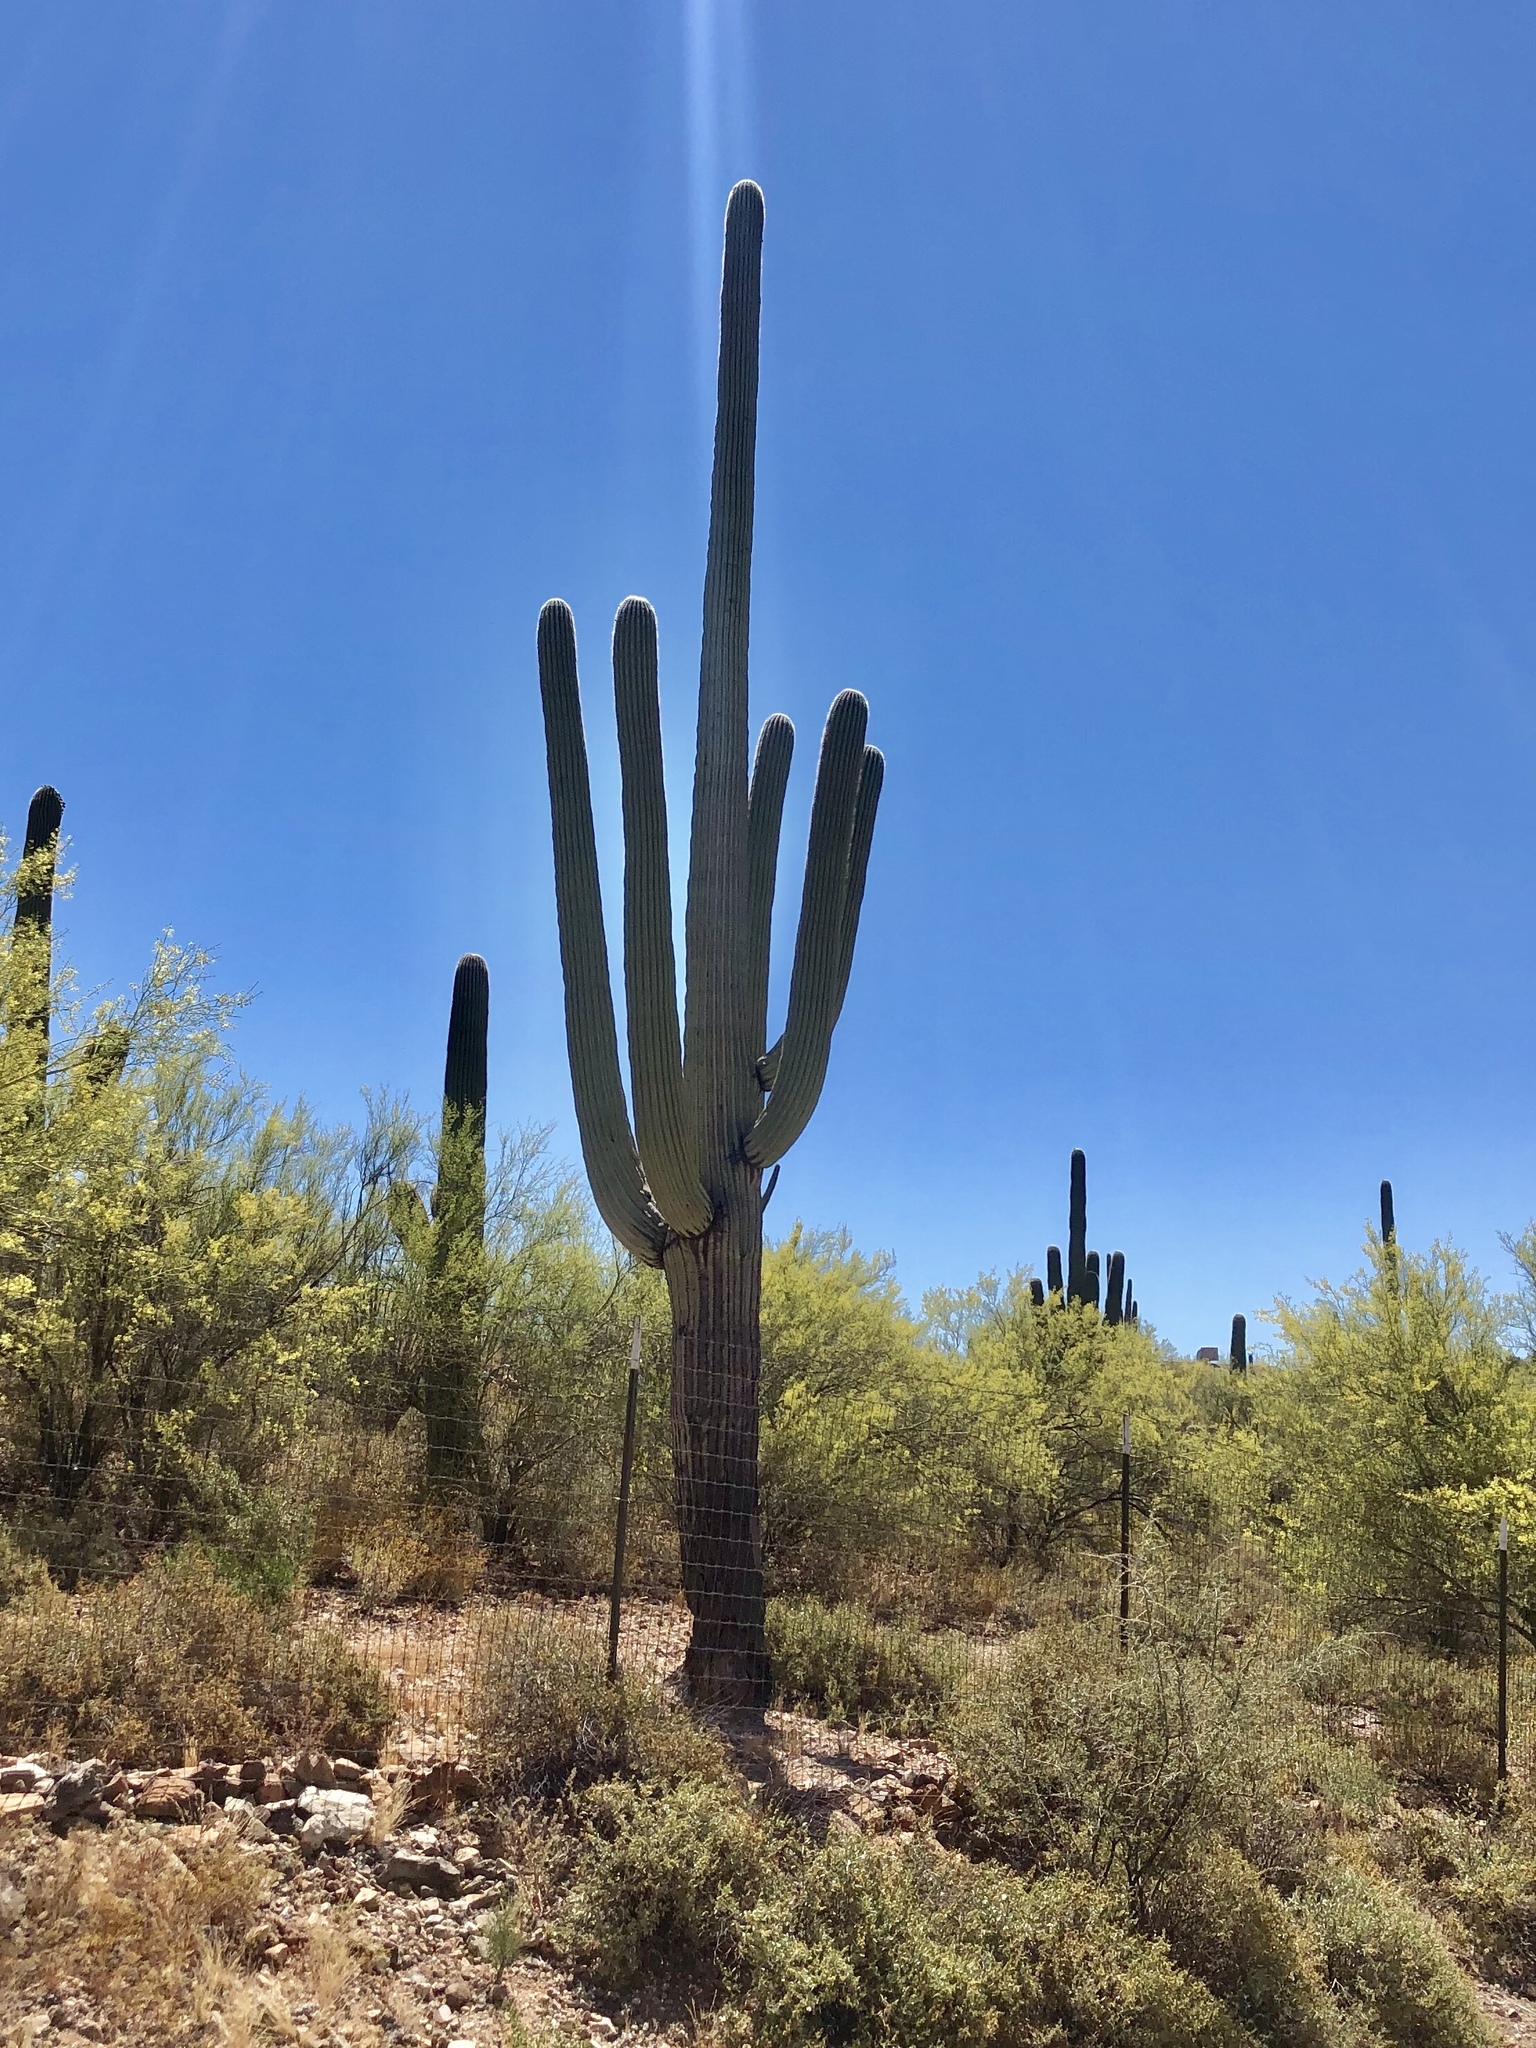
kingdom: Plantae
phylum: Tracheophyta
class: Magnoliopsida
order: Caryophyllales
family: Cactaceae
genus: Carnegiea
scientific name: Carnegiea gigantea
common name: Saguaro
